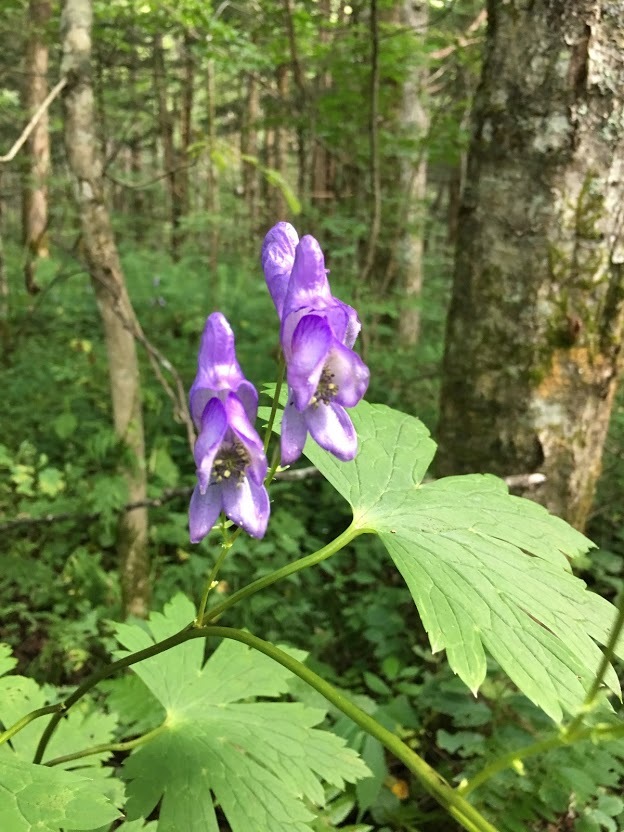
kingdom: Plantae
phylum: Tracheophyta
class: Magnoliopsida
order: Ranunculales
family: Ranunculaceae
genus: Aconitum
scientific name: Aconitum japonicum
